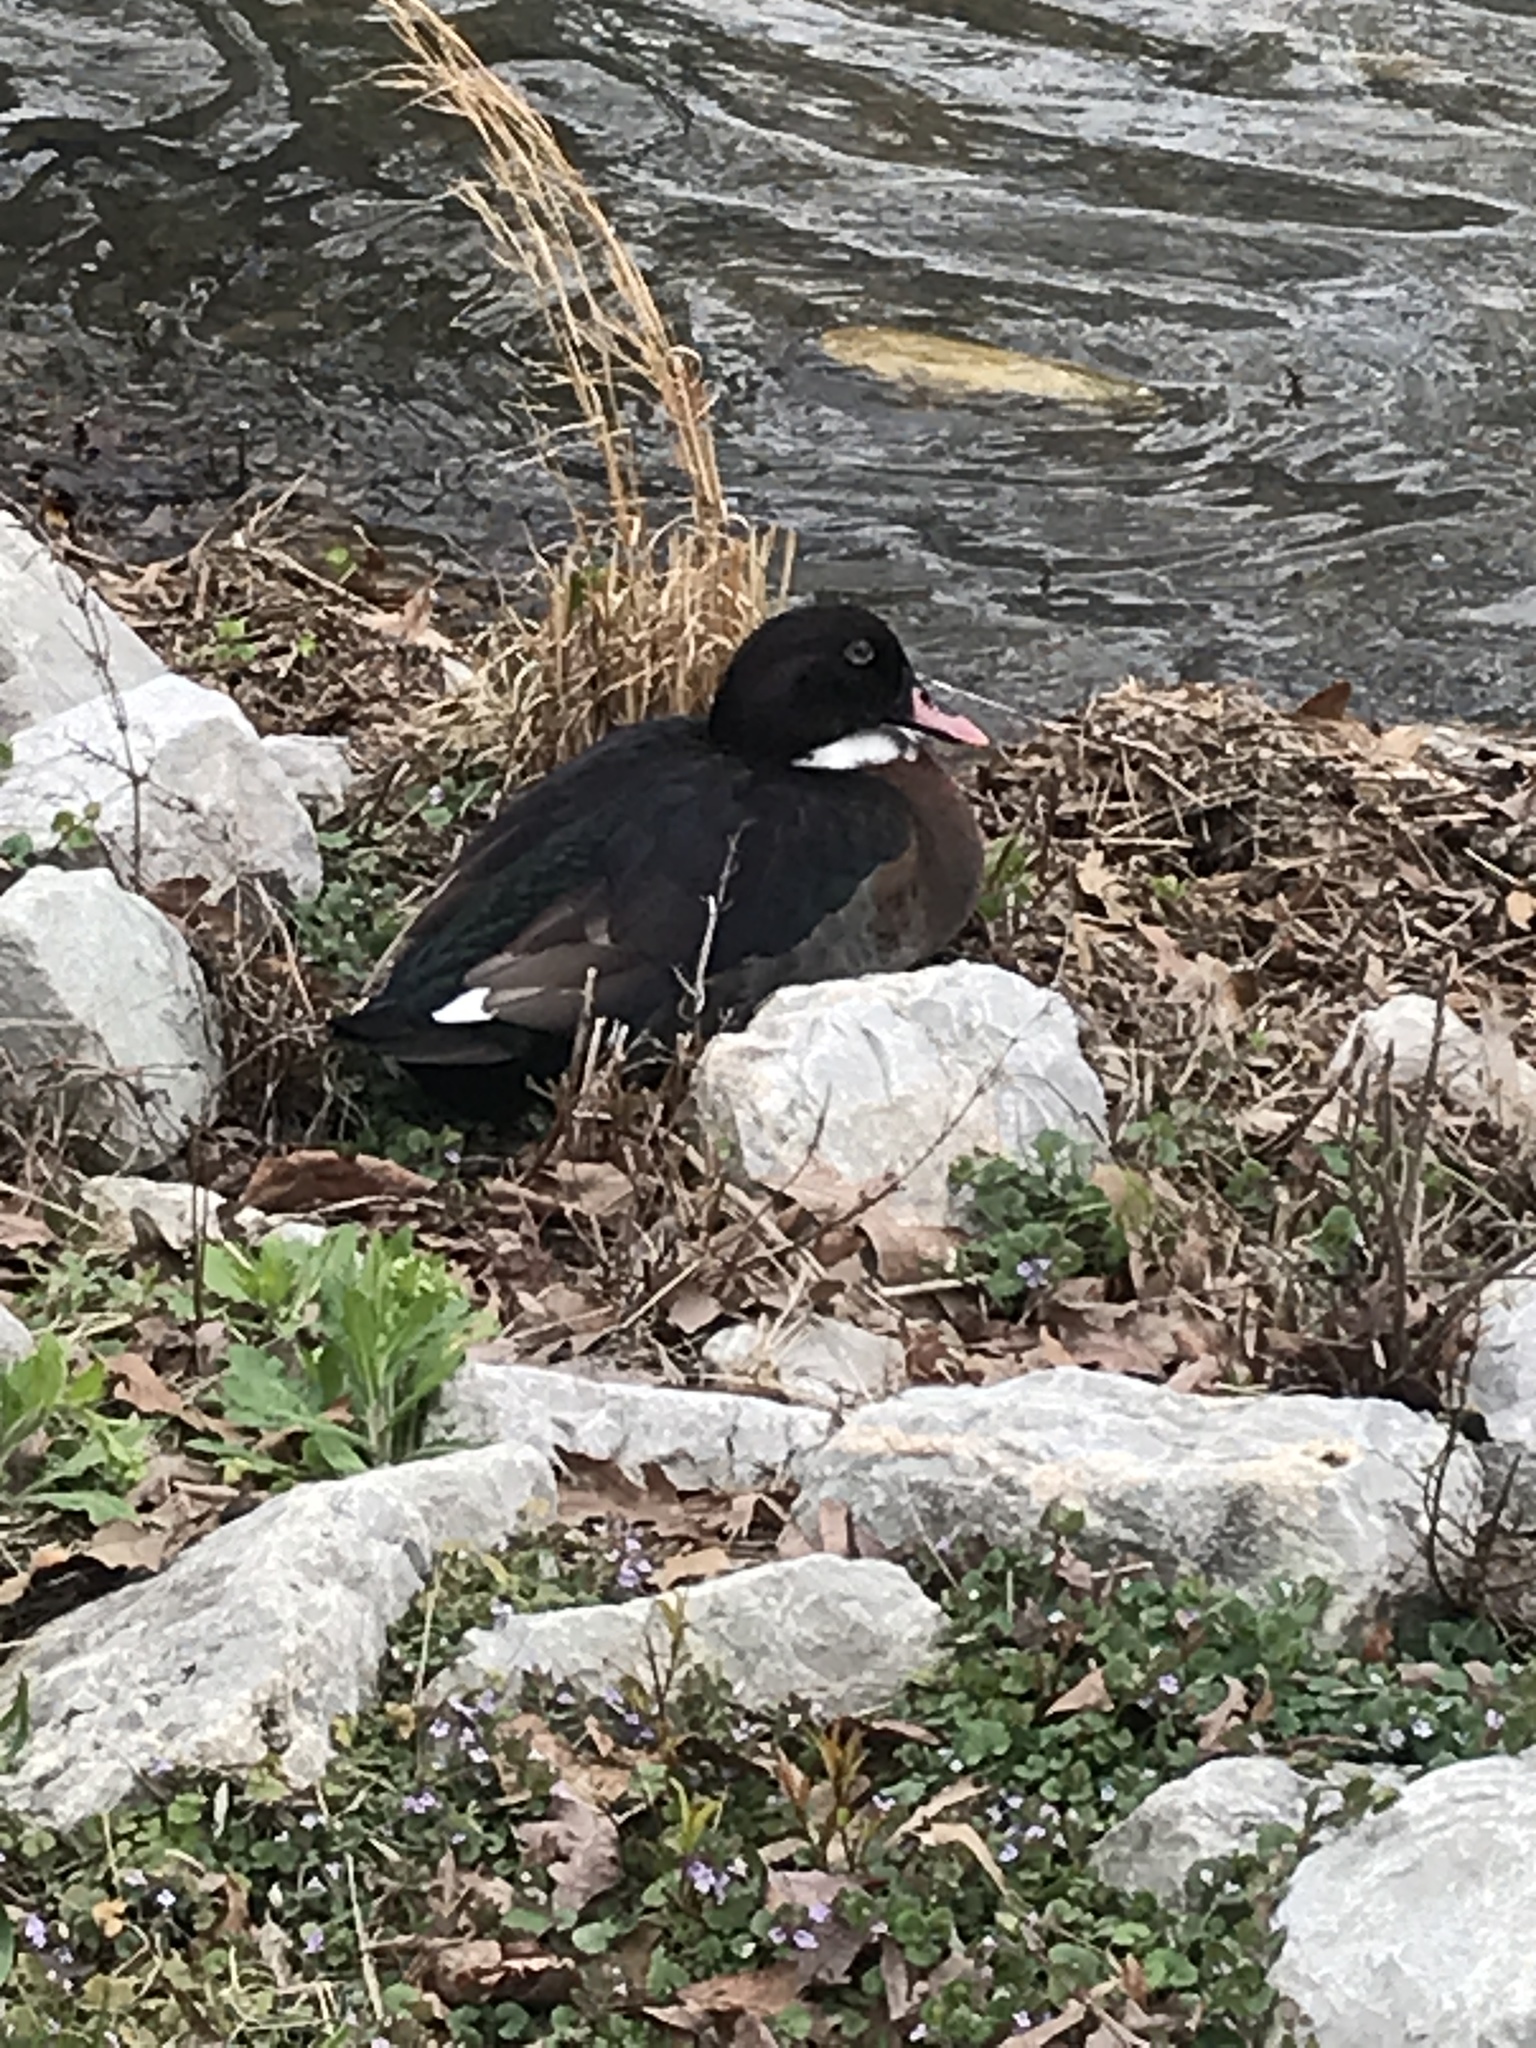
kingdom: Animalia
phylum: Chordata
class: Aves
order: Anseriformes
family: Anatidae
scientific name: Anatidae
